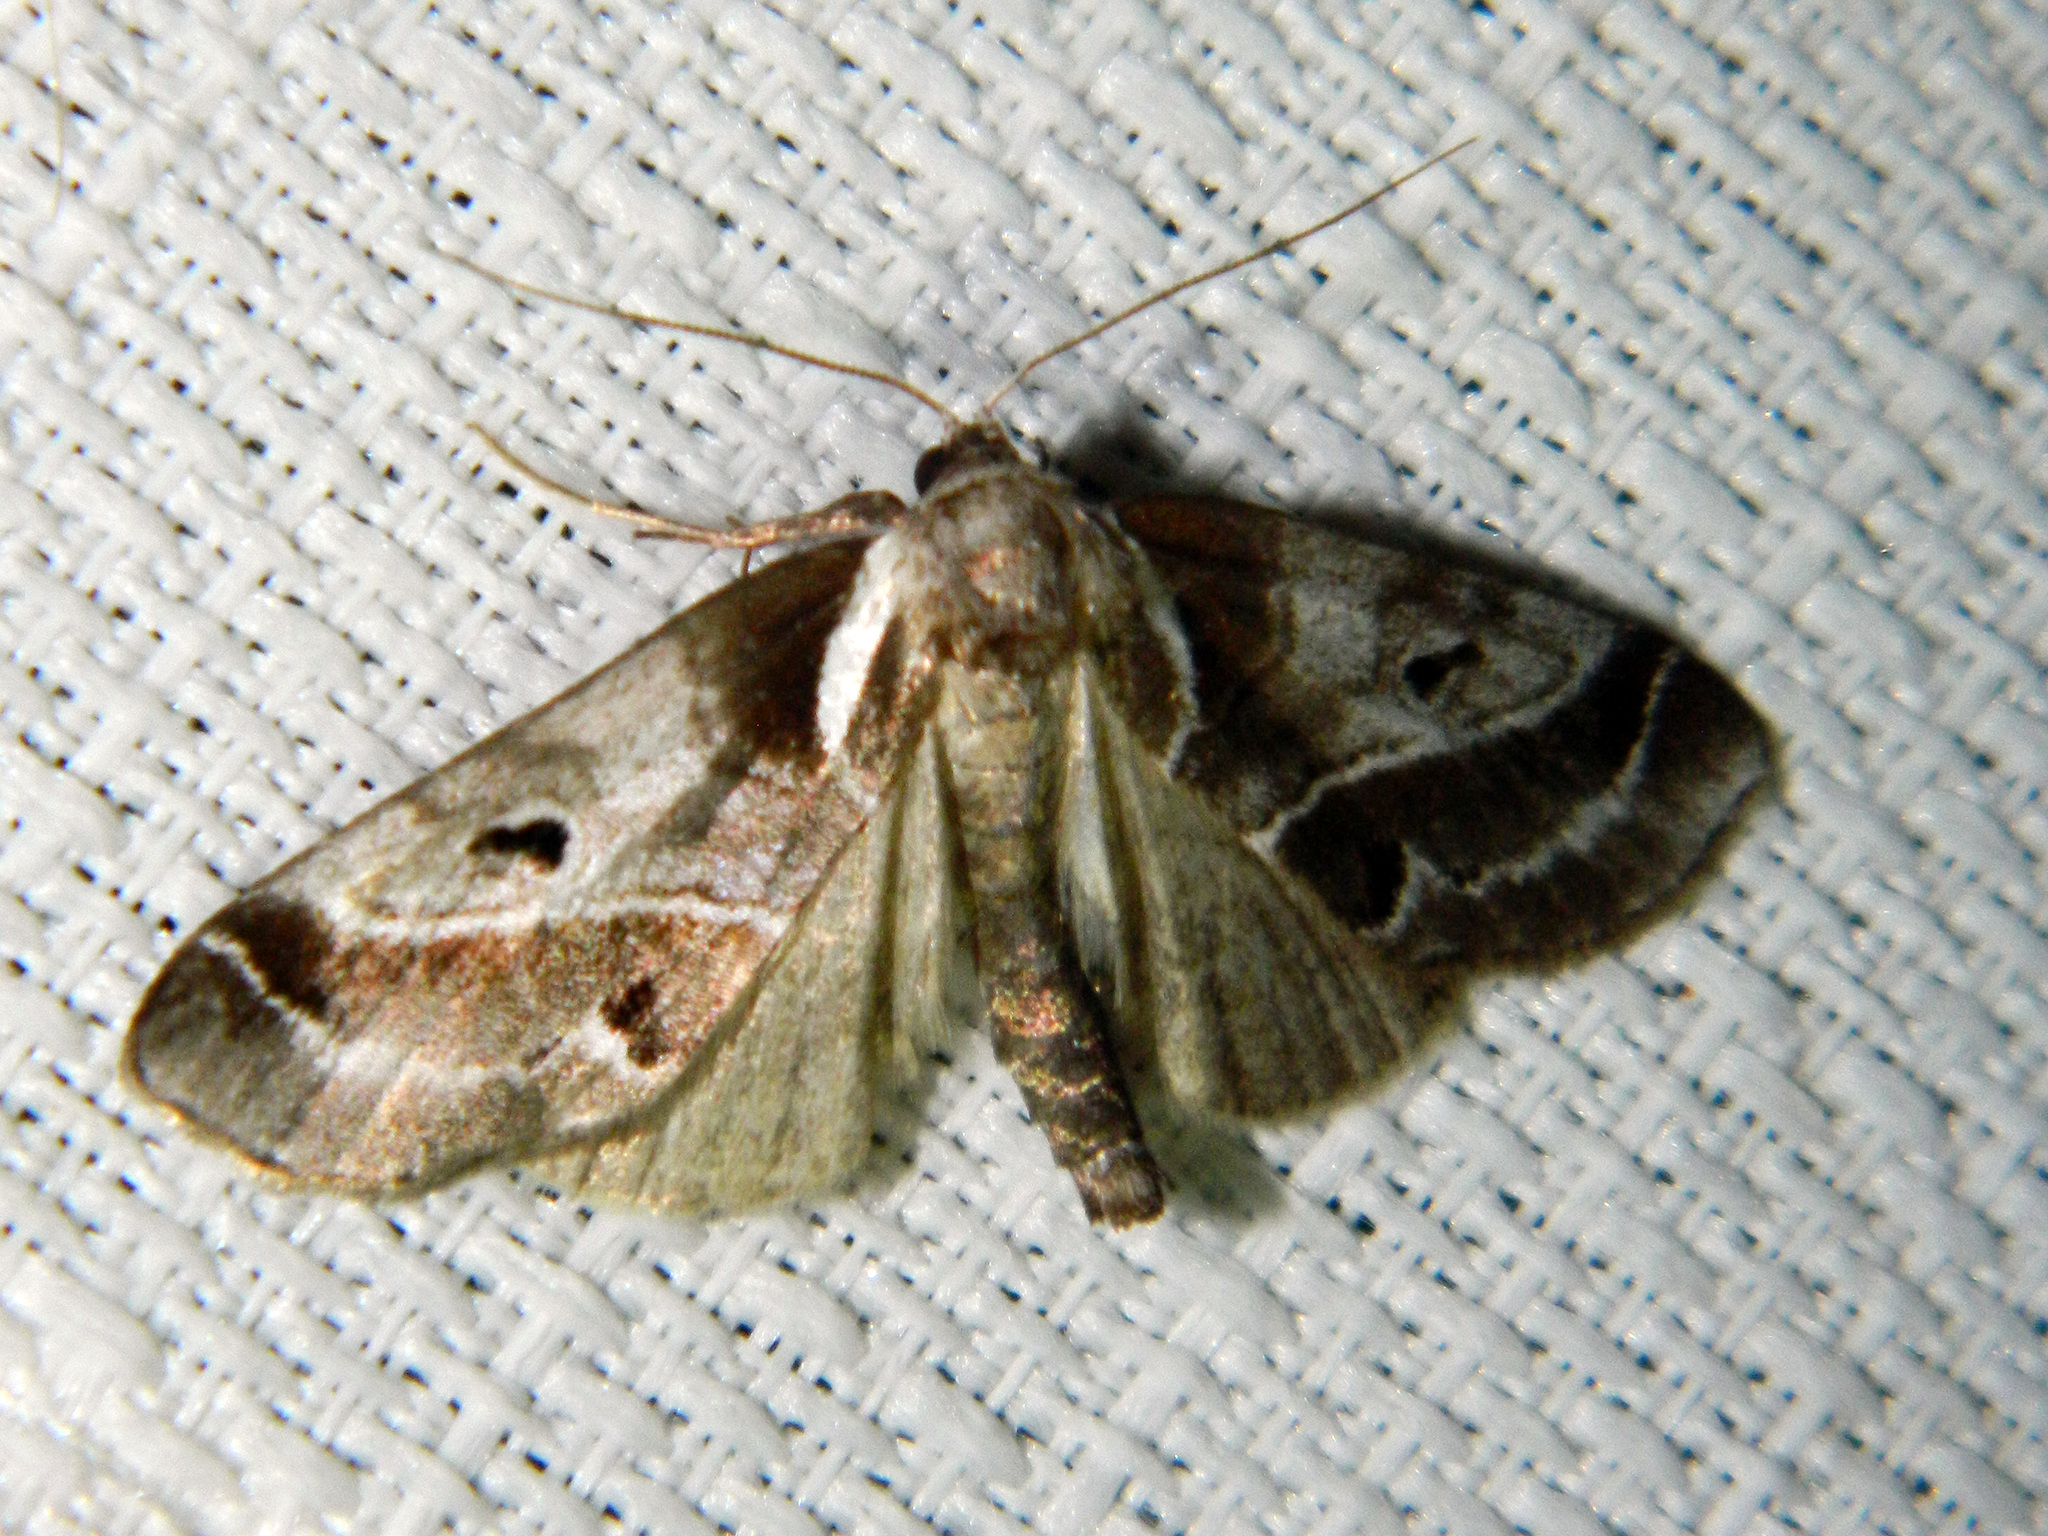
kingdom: Animalia
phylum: Arthropoda
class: Insecta
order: Lepidoptera
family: Nolidae
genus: Baileya
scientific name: Baileya doubledayi
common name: Doubleday's baileya moth
